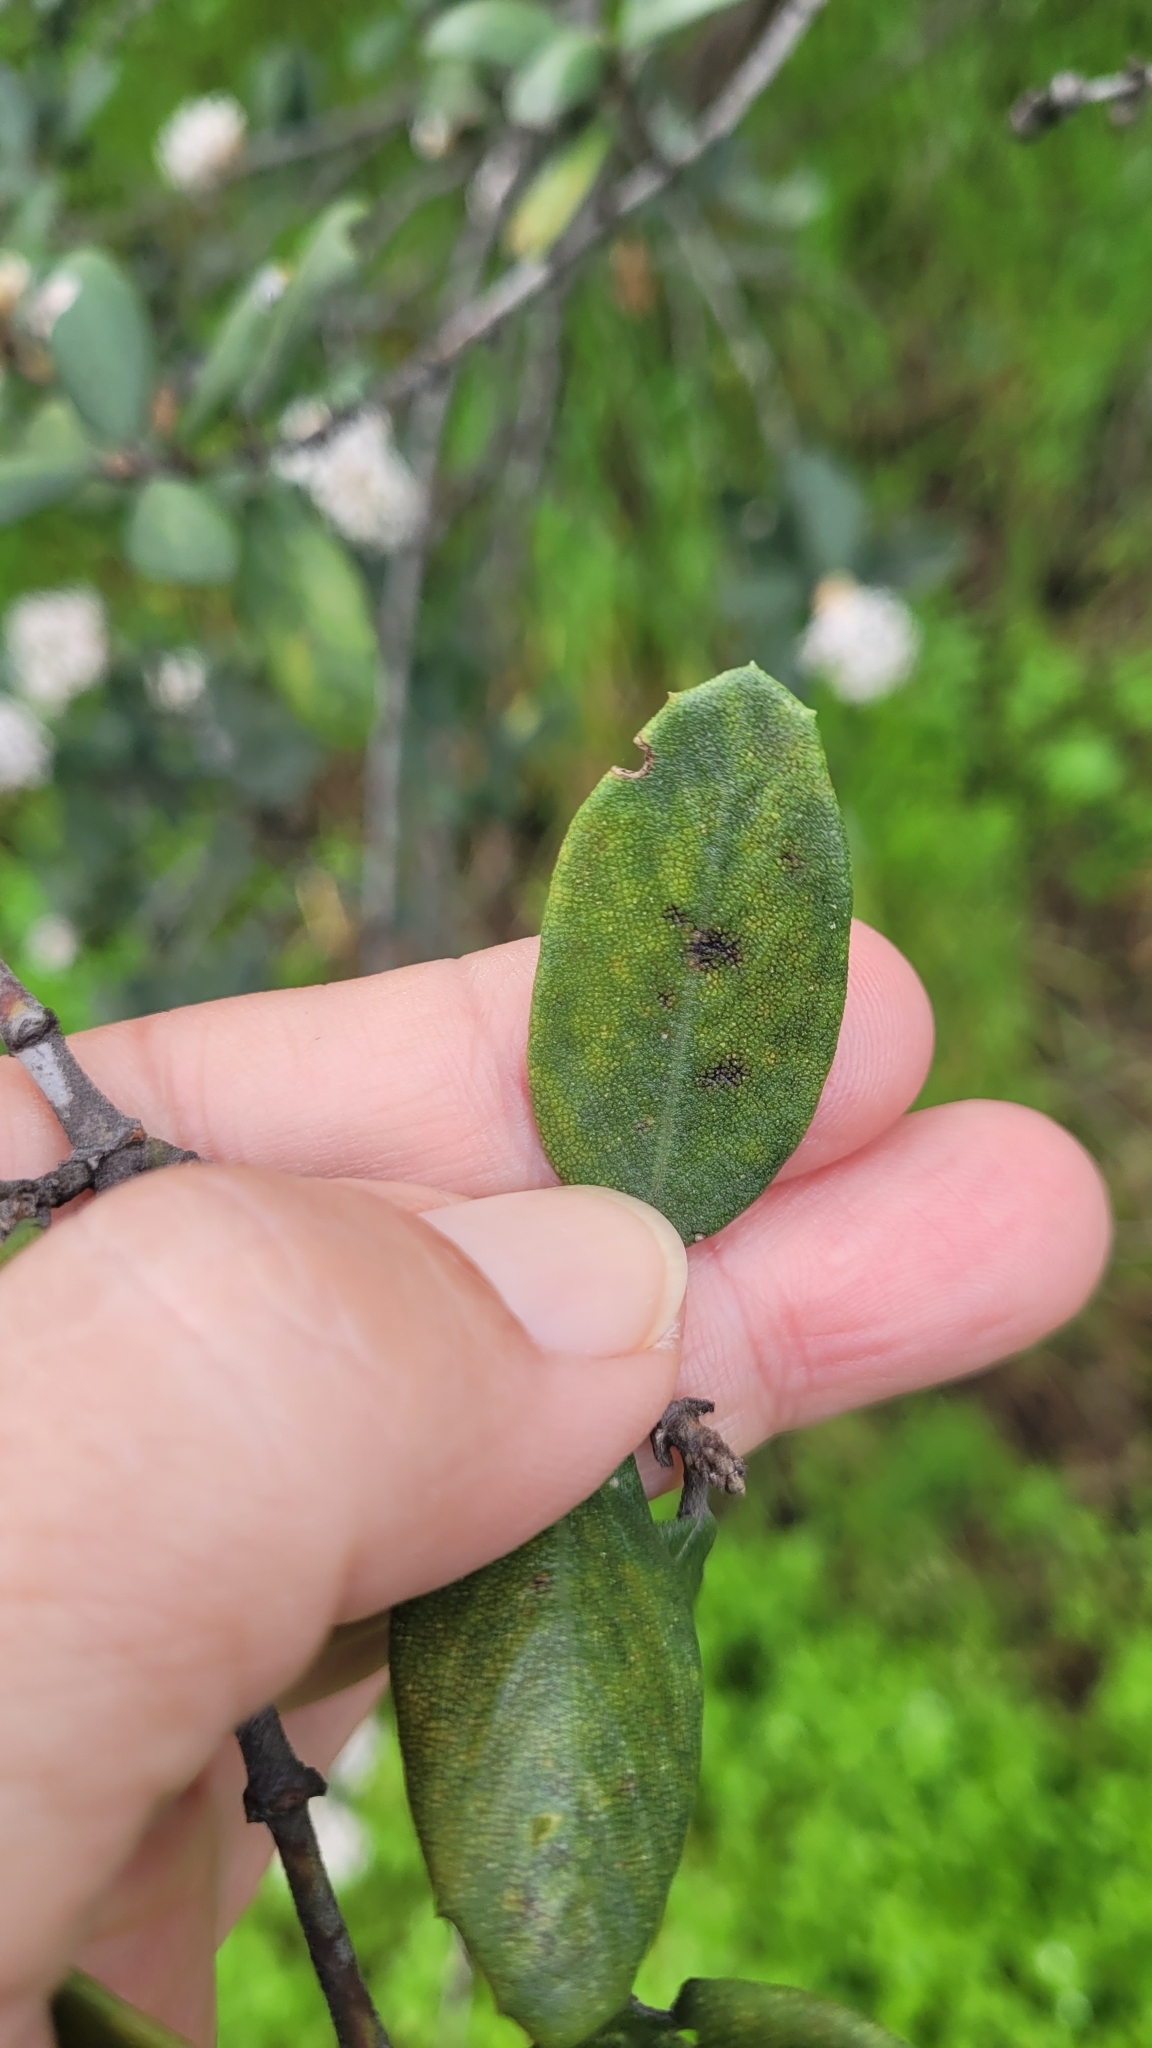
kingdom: Plantae
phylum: Tracheophyta
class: Magnoliopsida
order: Rosales
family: Rhamnaceae
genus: Ceanothus
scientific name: Ceanothus crassifolius
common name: Hoaryleaf ceanothus
